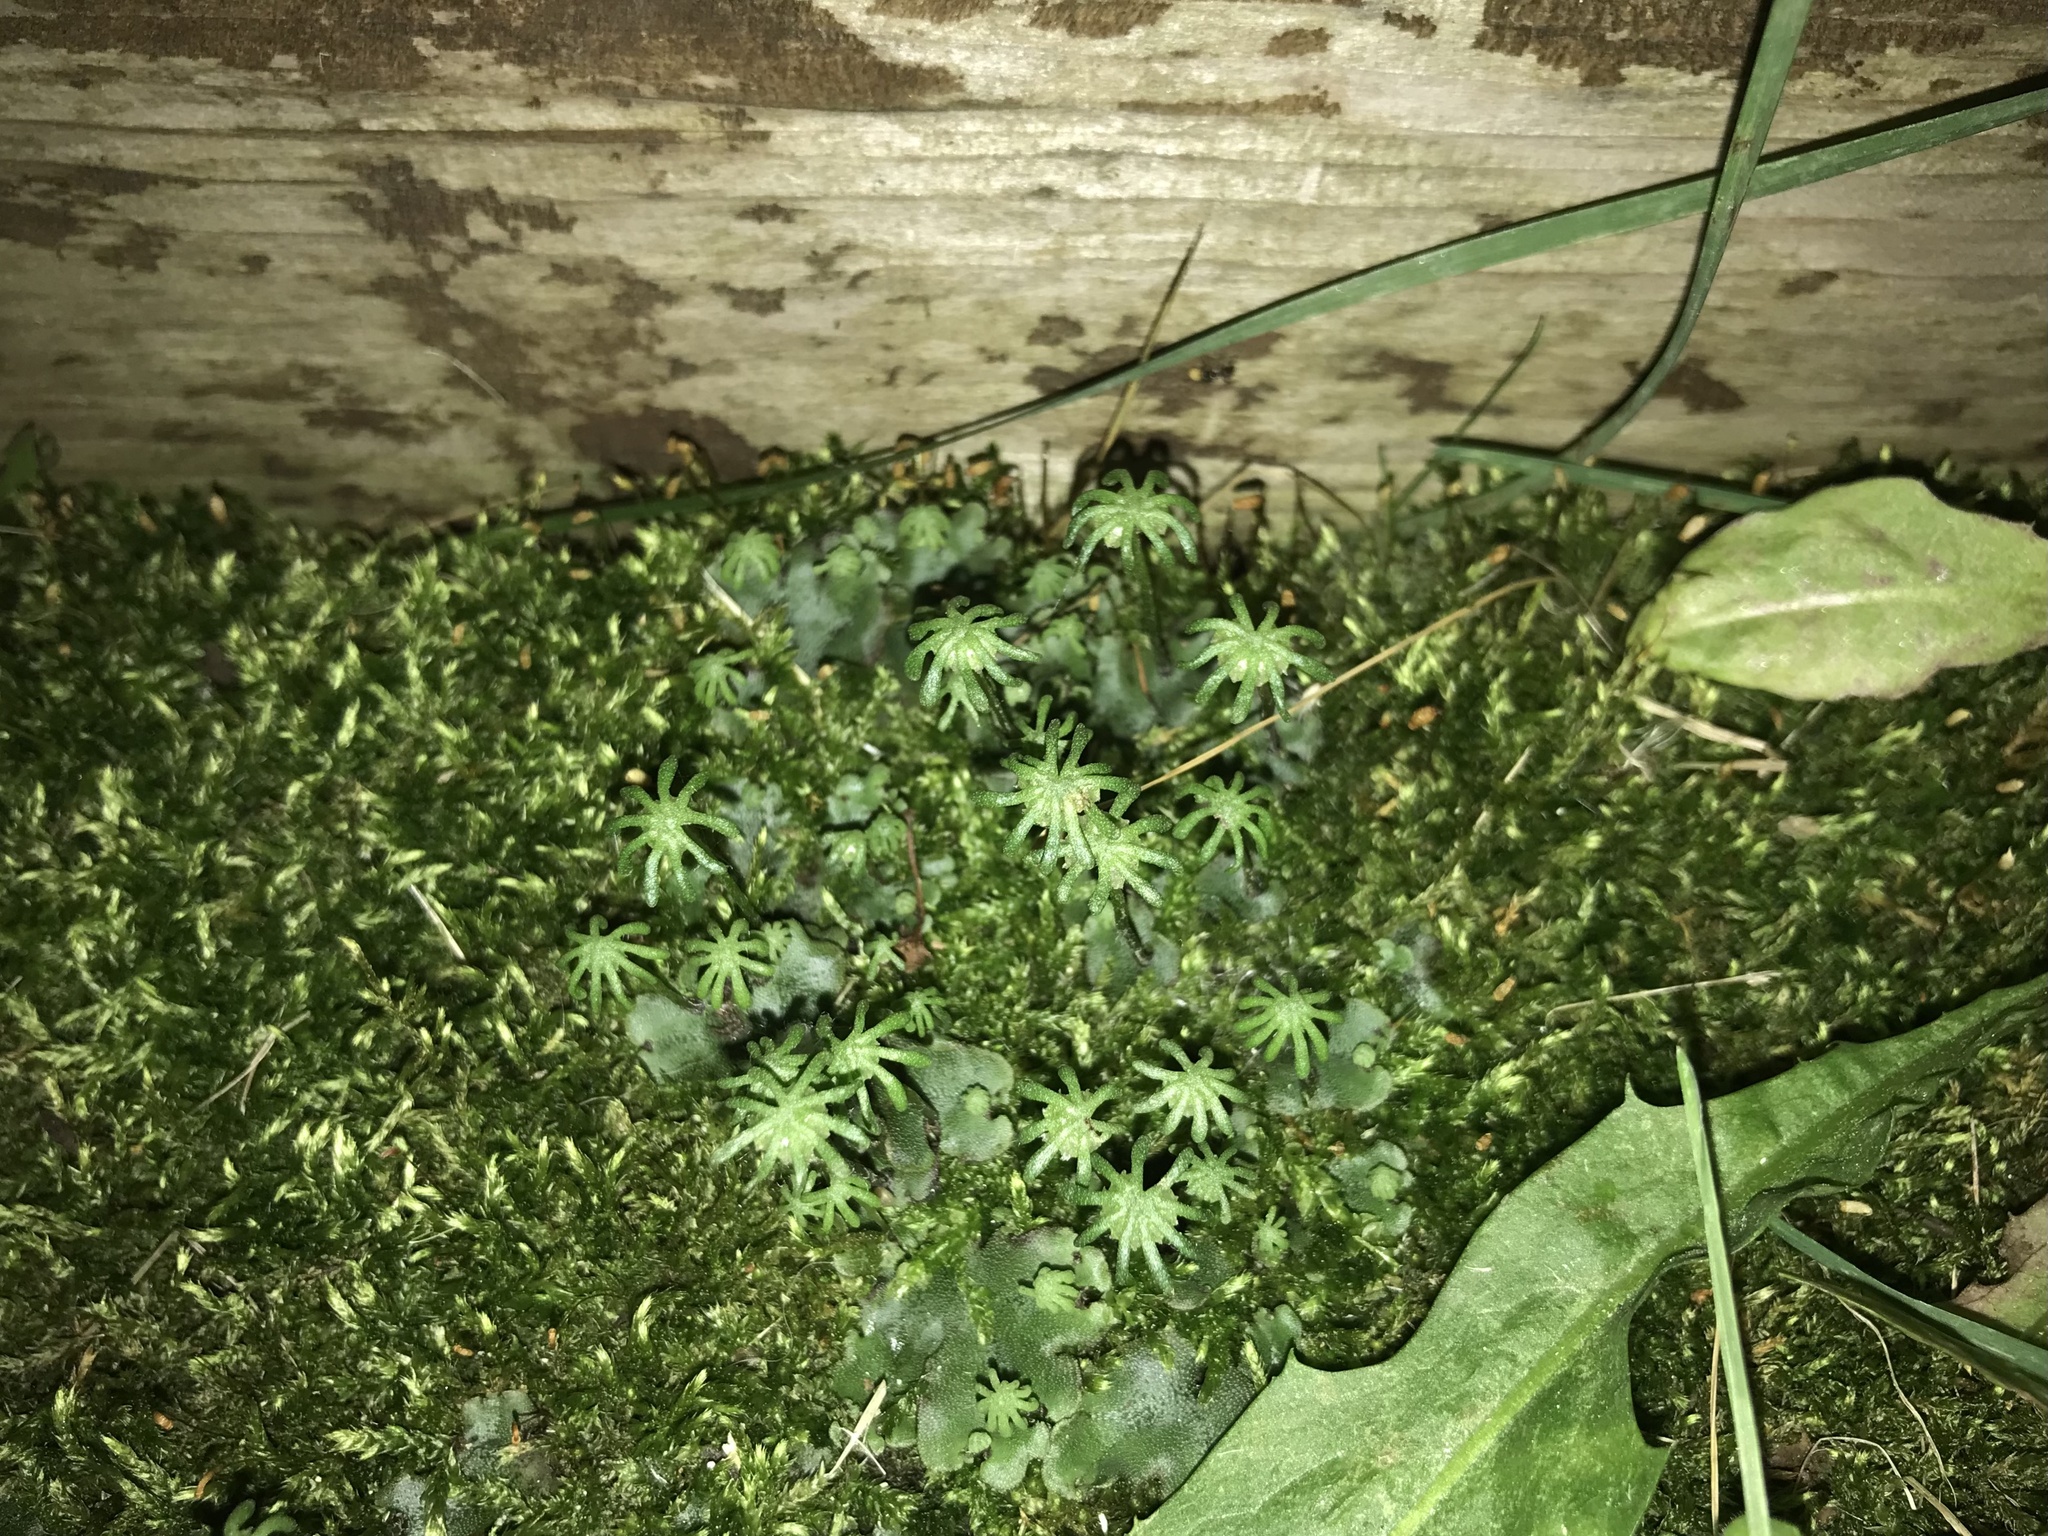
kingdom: Plantae
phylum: Marchantiophyta
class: Marchantiopsida
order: Marchantiales
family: Marchantiaceae
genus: Marchantia
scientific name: Marchantia polymorpha
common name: Common liverwort
